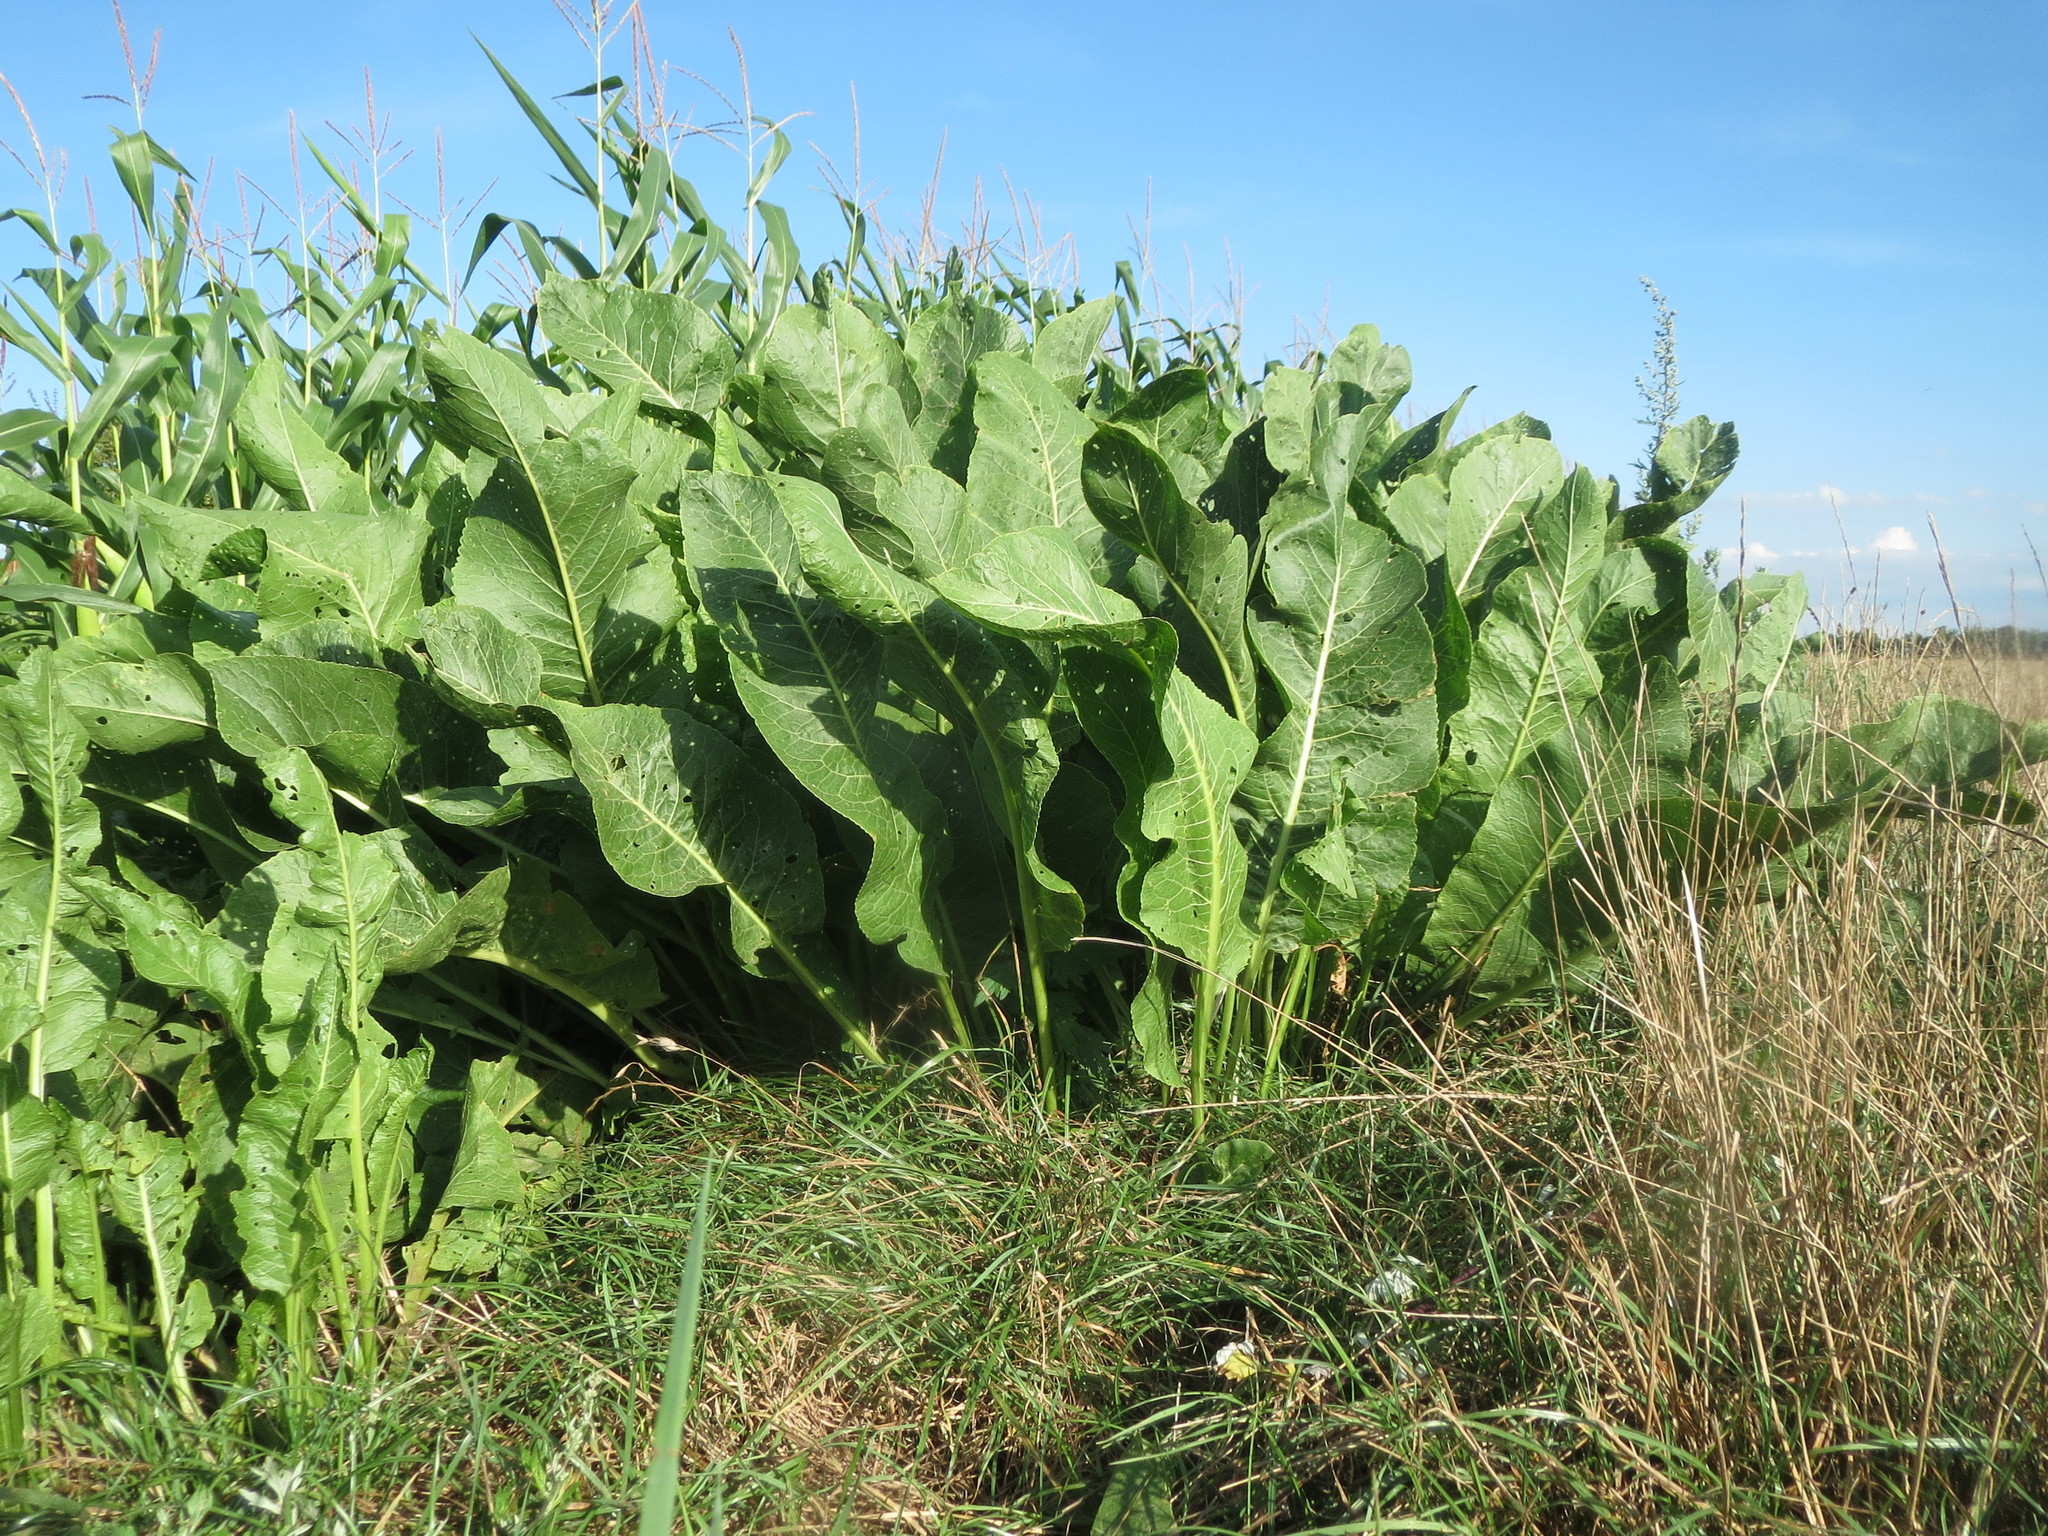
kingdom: Plantae
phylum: Tracheophyta
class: Magnoliopsida
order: Brassicales
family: Brassicaceae
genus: Armoracia
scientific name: Armoracia rusticana
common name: Horseradish
